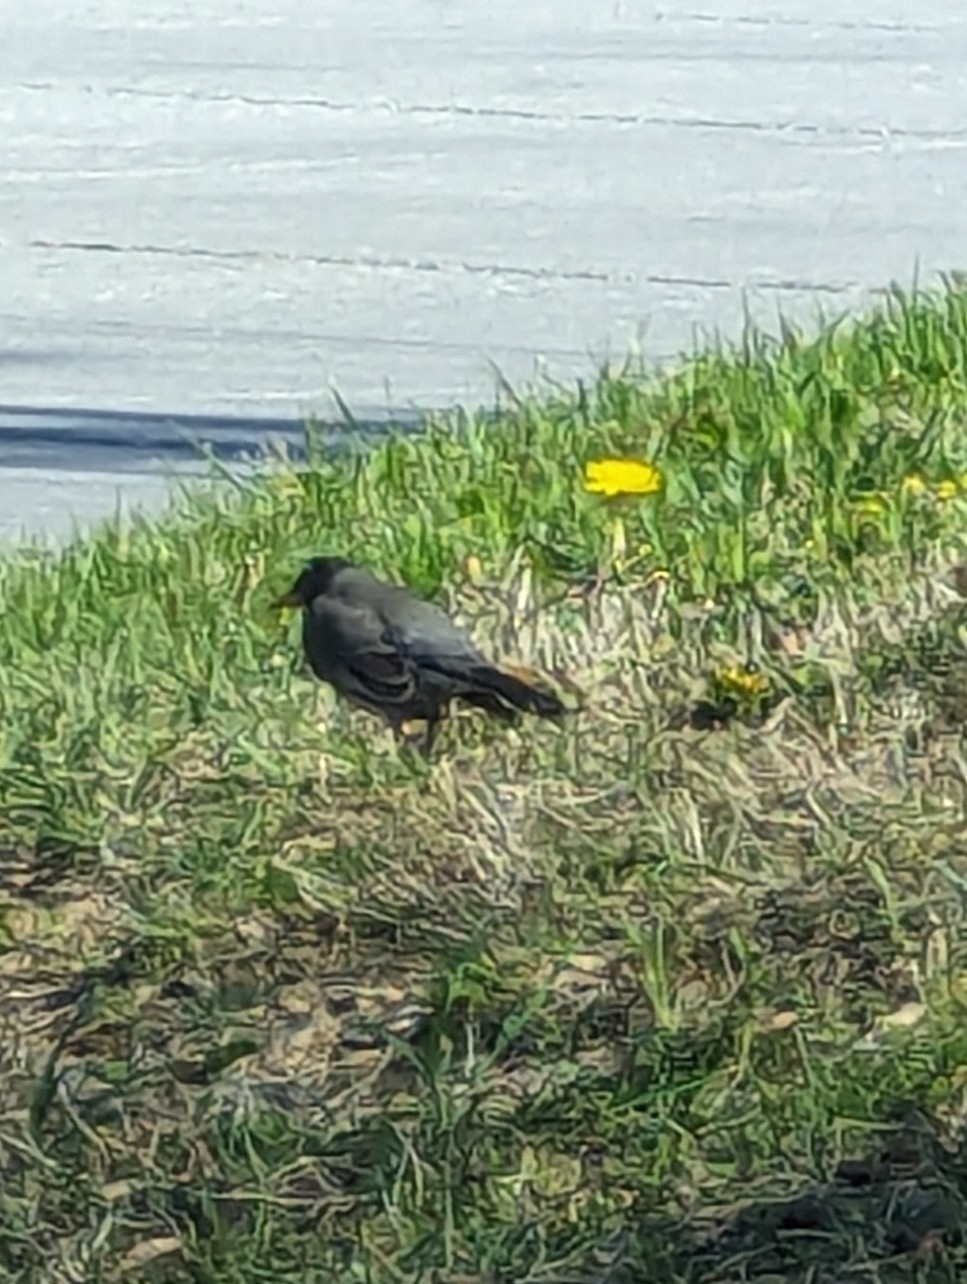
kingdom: Animalia
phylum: Chordata
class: Aves
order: Passeriformes
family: Turdidae
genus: Turdus
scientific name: Turdus migratorius
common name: American robin
